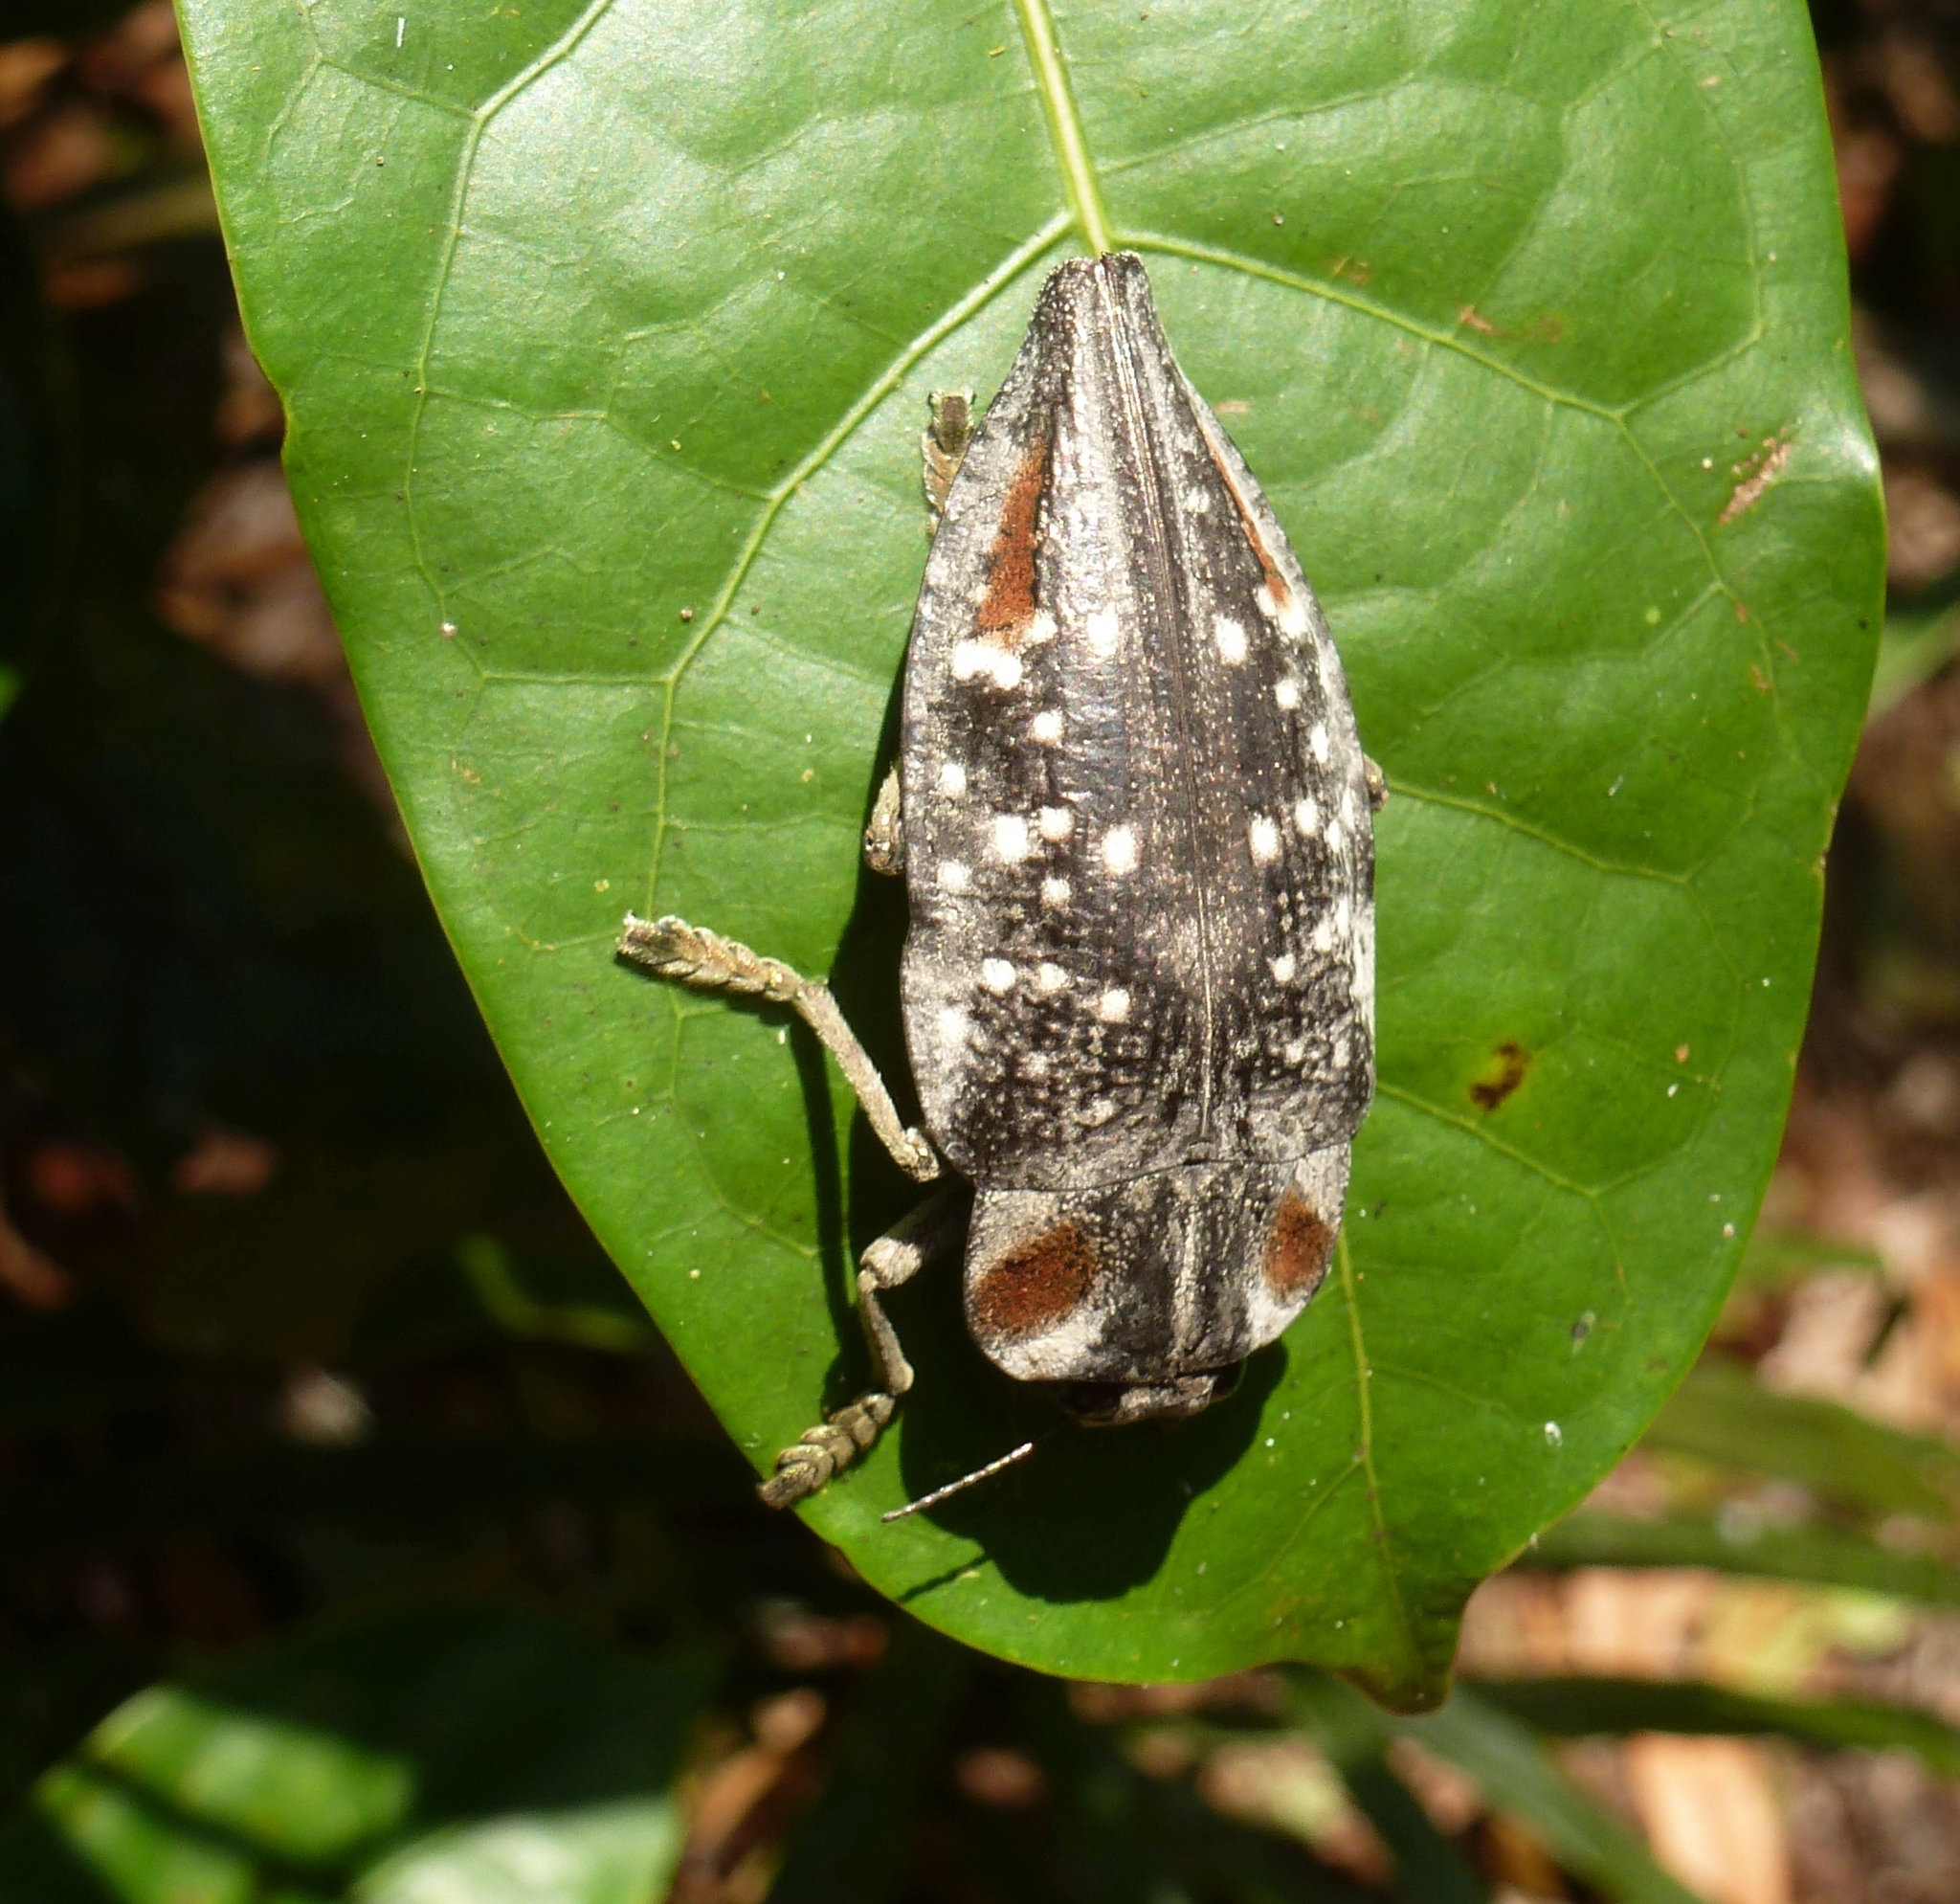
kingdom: Animalia
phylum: Arthropoda
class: Insecta
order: Coleoptera
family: Buprestidae
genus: Polybothris
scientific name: Polybothris ochreata
